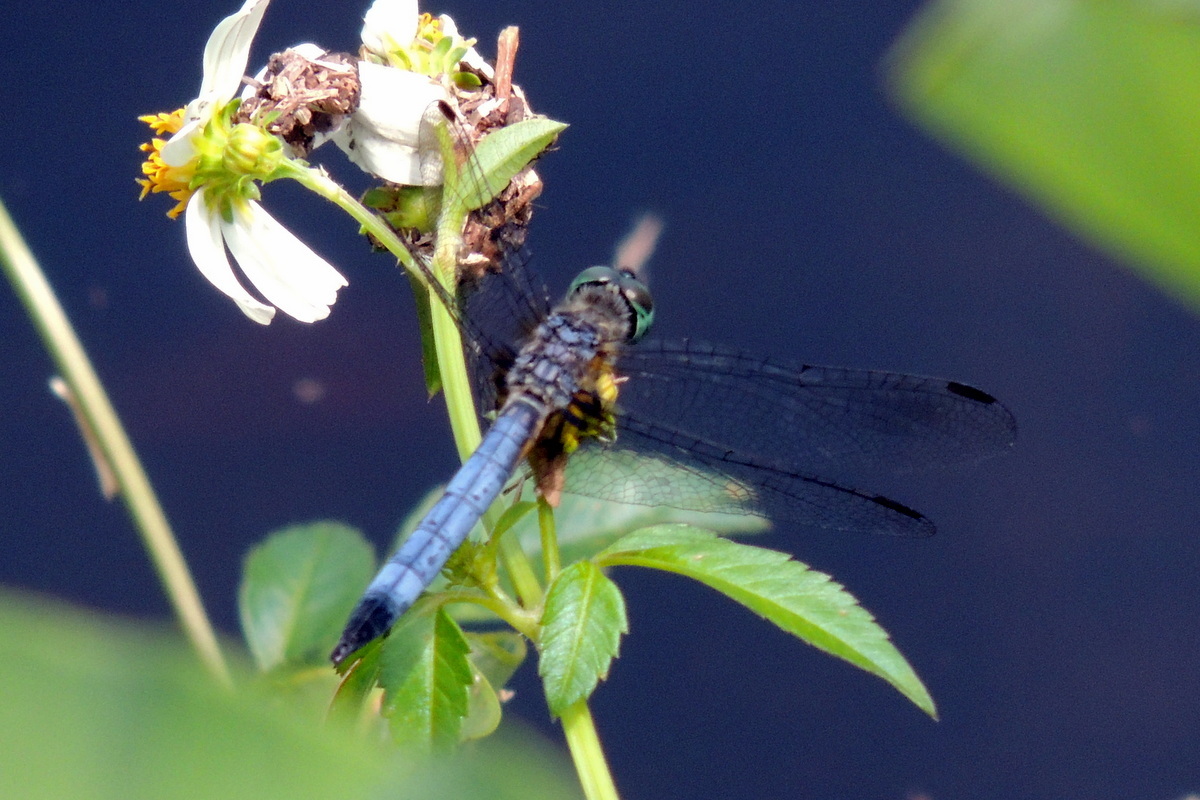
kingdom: Animalia
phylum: Arthropoda
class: Insecta
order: Odonata
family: Libellulidae
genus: Pachydiplax
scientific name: Pachydiplax longipennis
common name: Blue dasher
